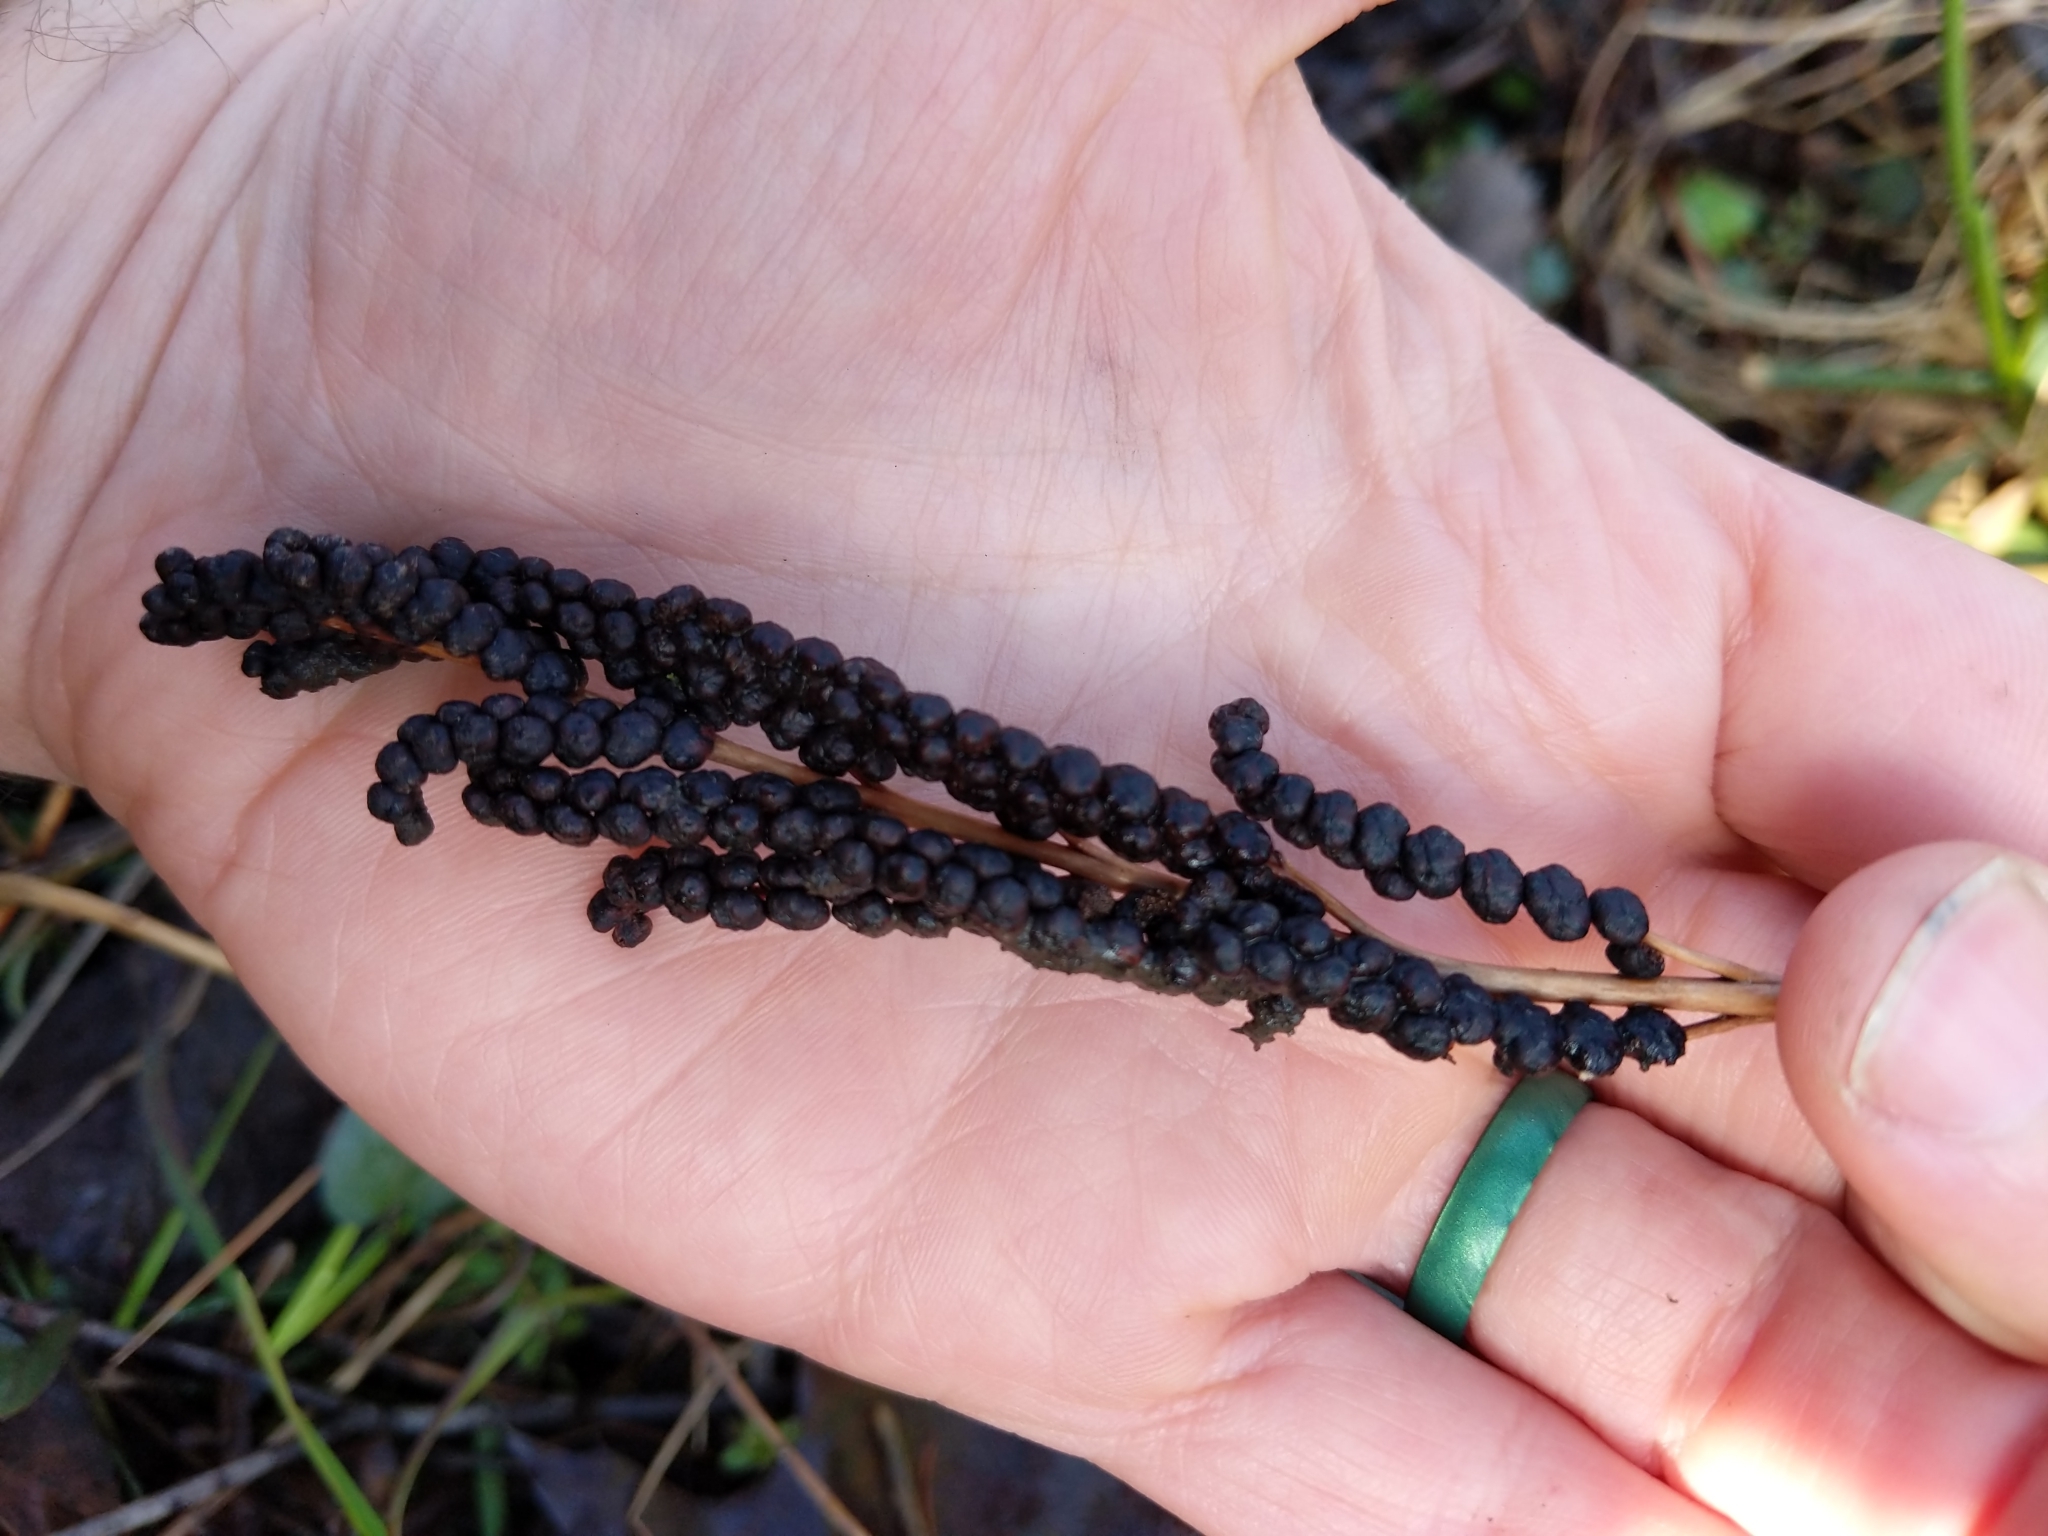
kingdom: Plantae
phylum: Tracheophyta
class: Polypodiopsida
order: Polypodiales
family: Onocleaceae
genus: Onoclea
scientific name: Onoclea sensibilis
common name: Sensitive fern
